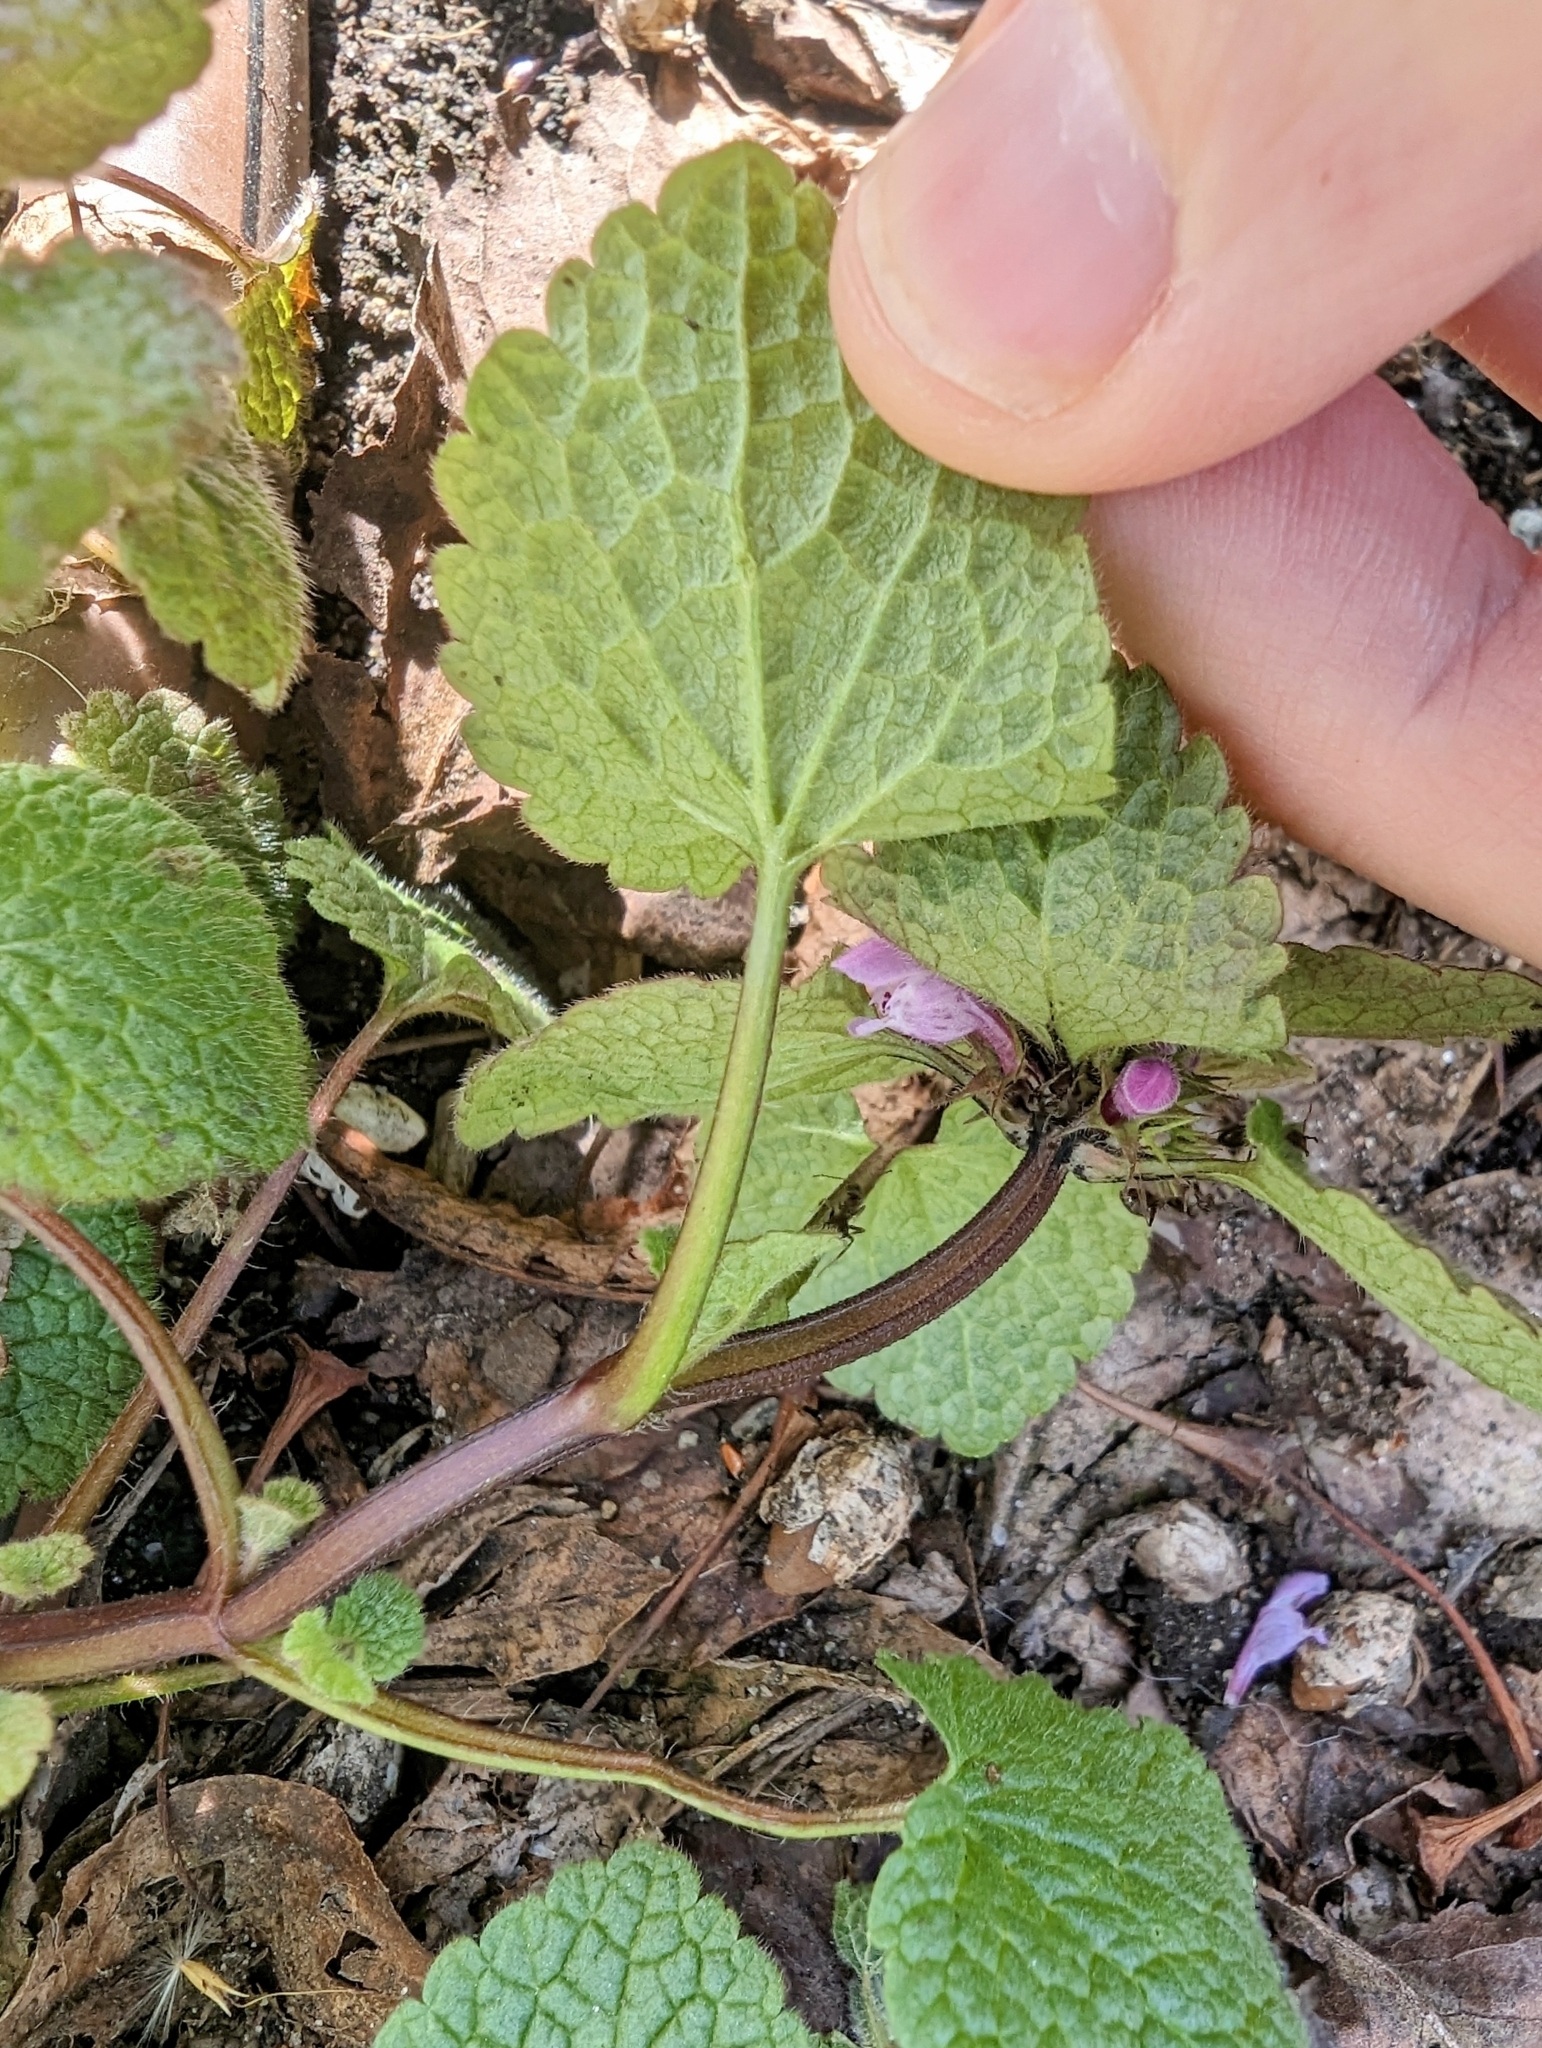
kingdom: Plantae
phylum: Tracheophyta
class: Magnoliopsida
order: Lamiales
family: Lamiaceae
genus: Lamium
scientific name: Lamium purpureum
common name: Red dead-nettle
